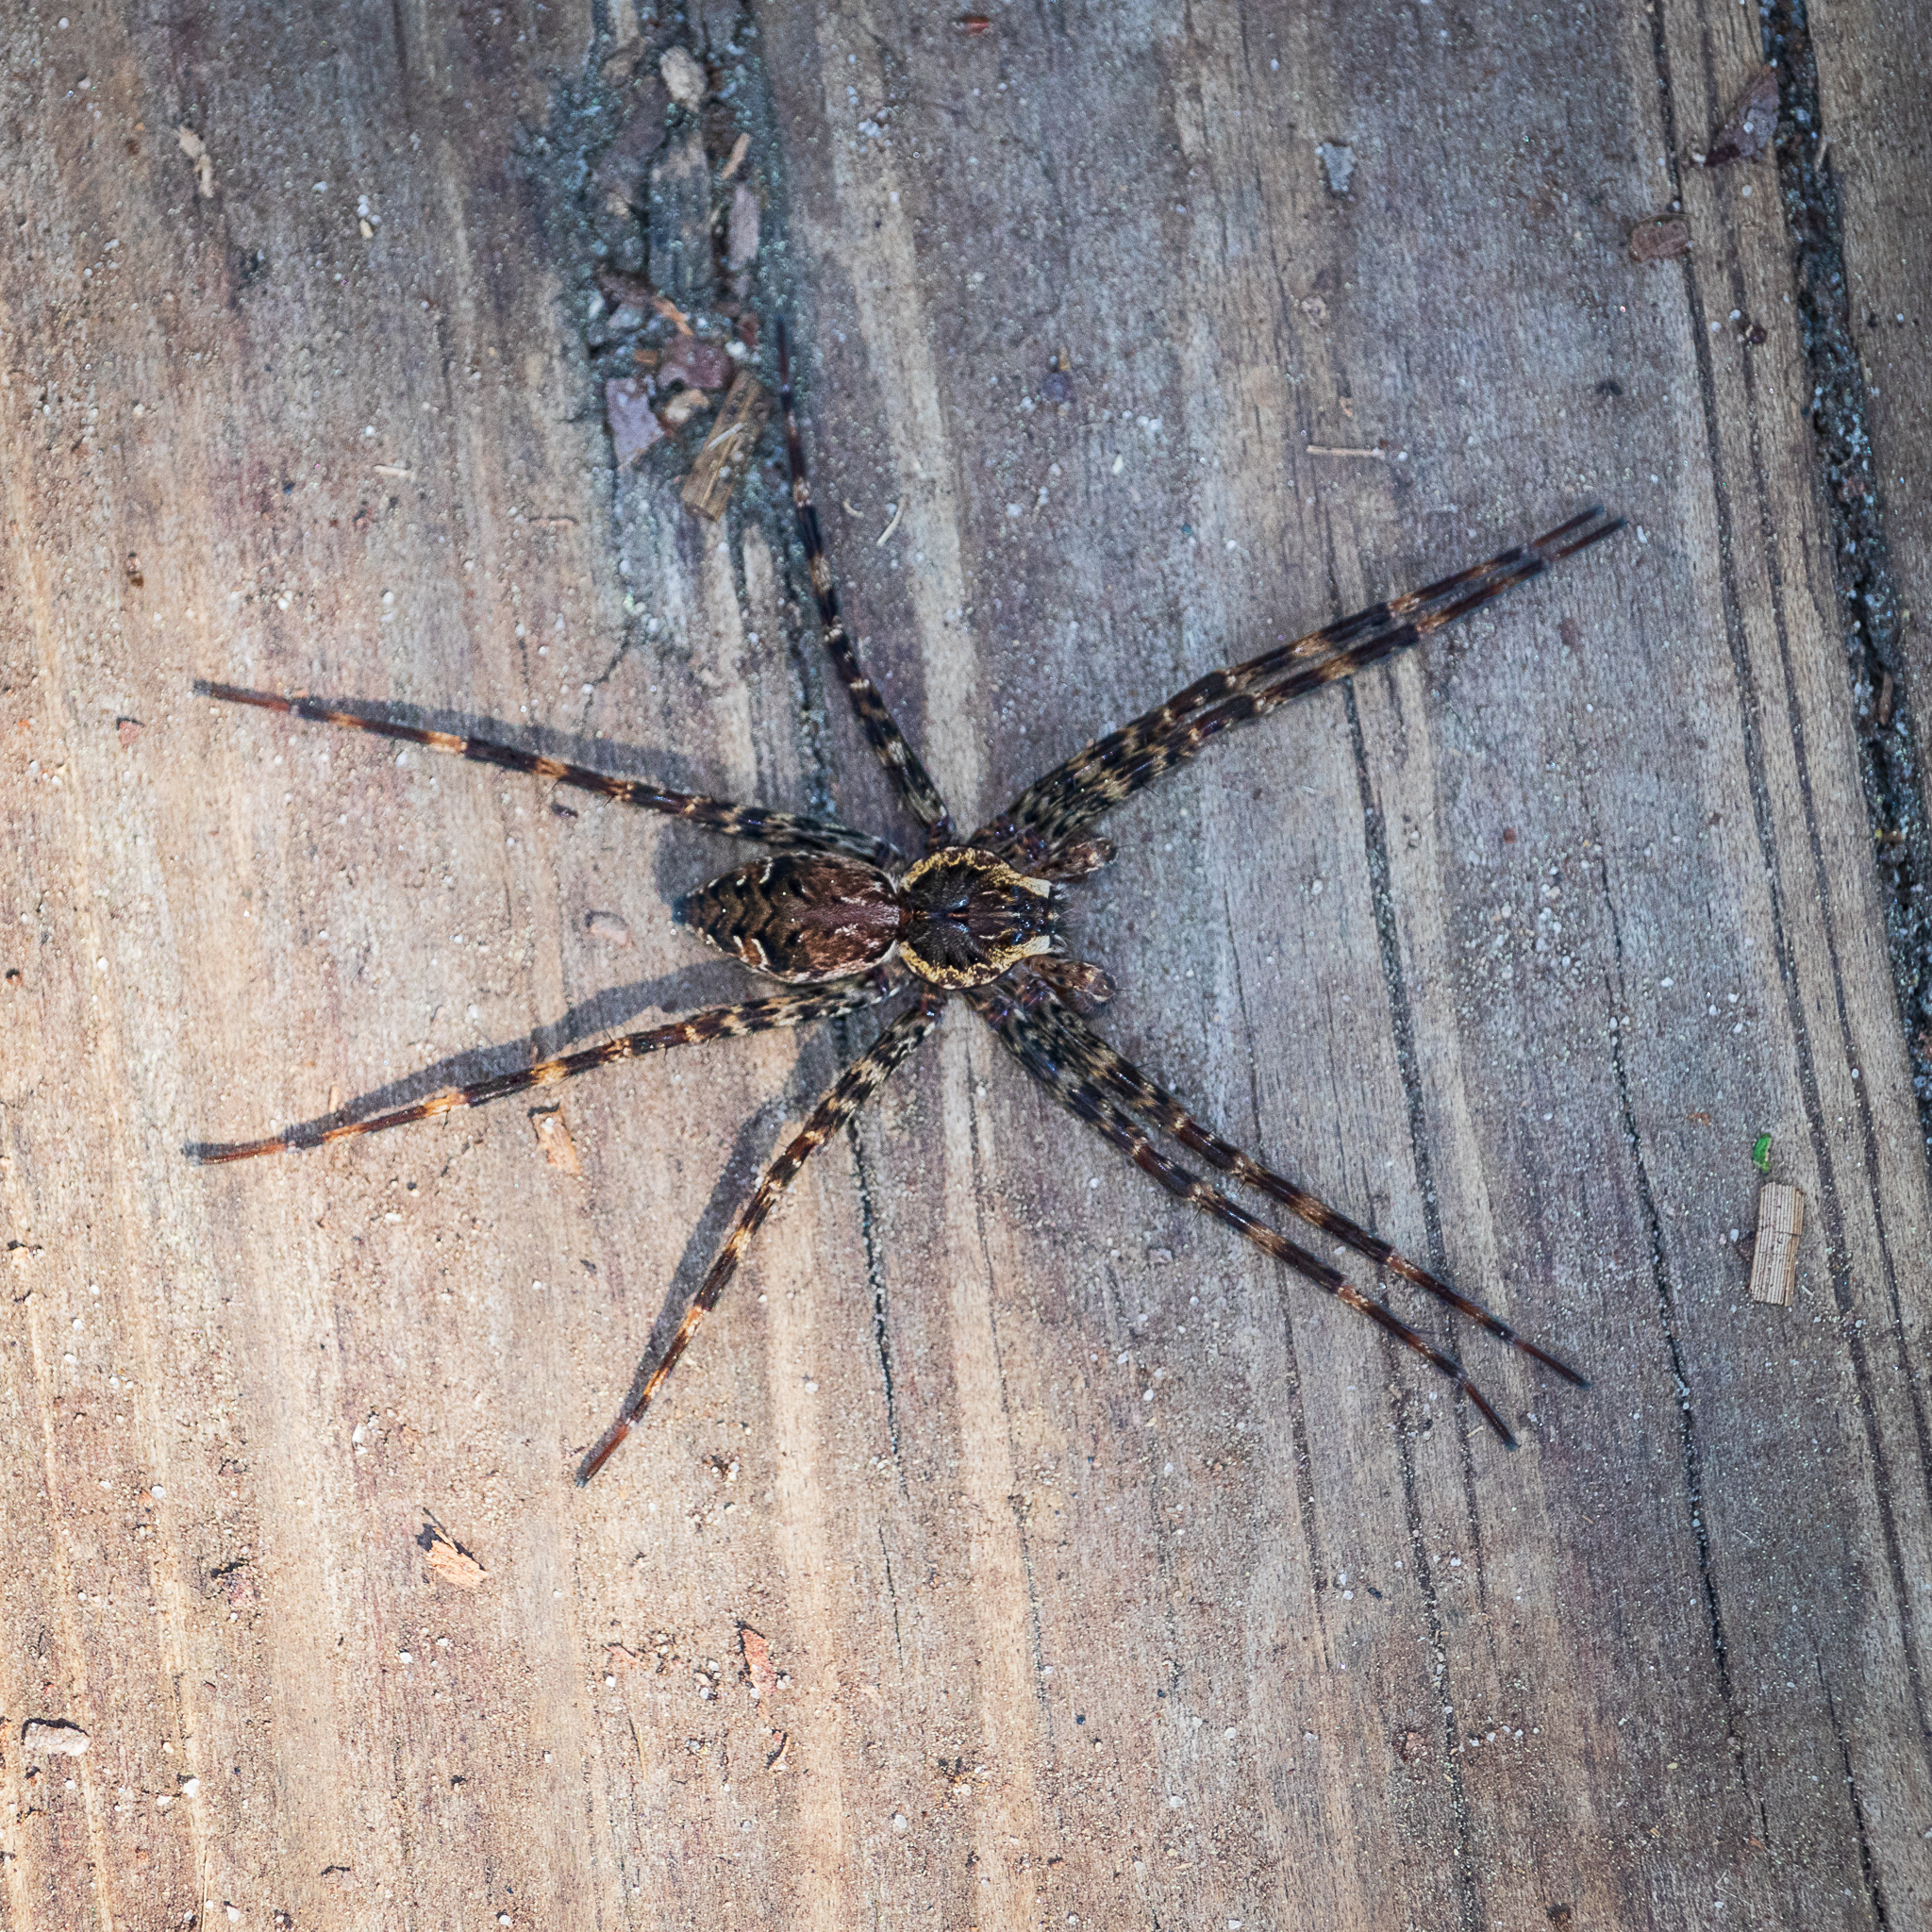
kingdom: Animalia
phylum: Arthropoda
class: Arachnida
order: Araneae
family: Pisauridae
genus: Dolomedes
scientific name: Dolomedes tenebrosus
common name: Dark fishing spider
